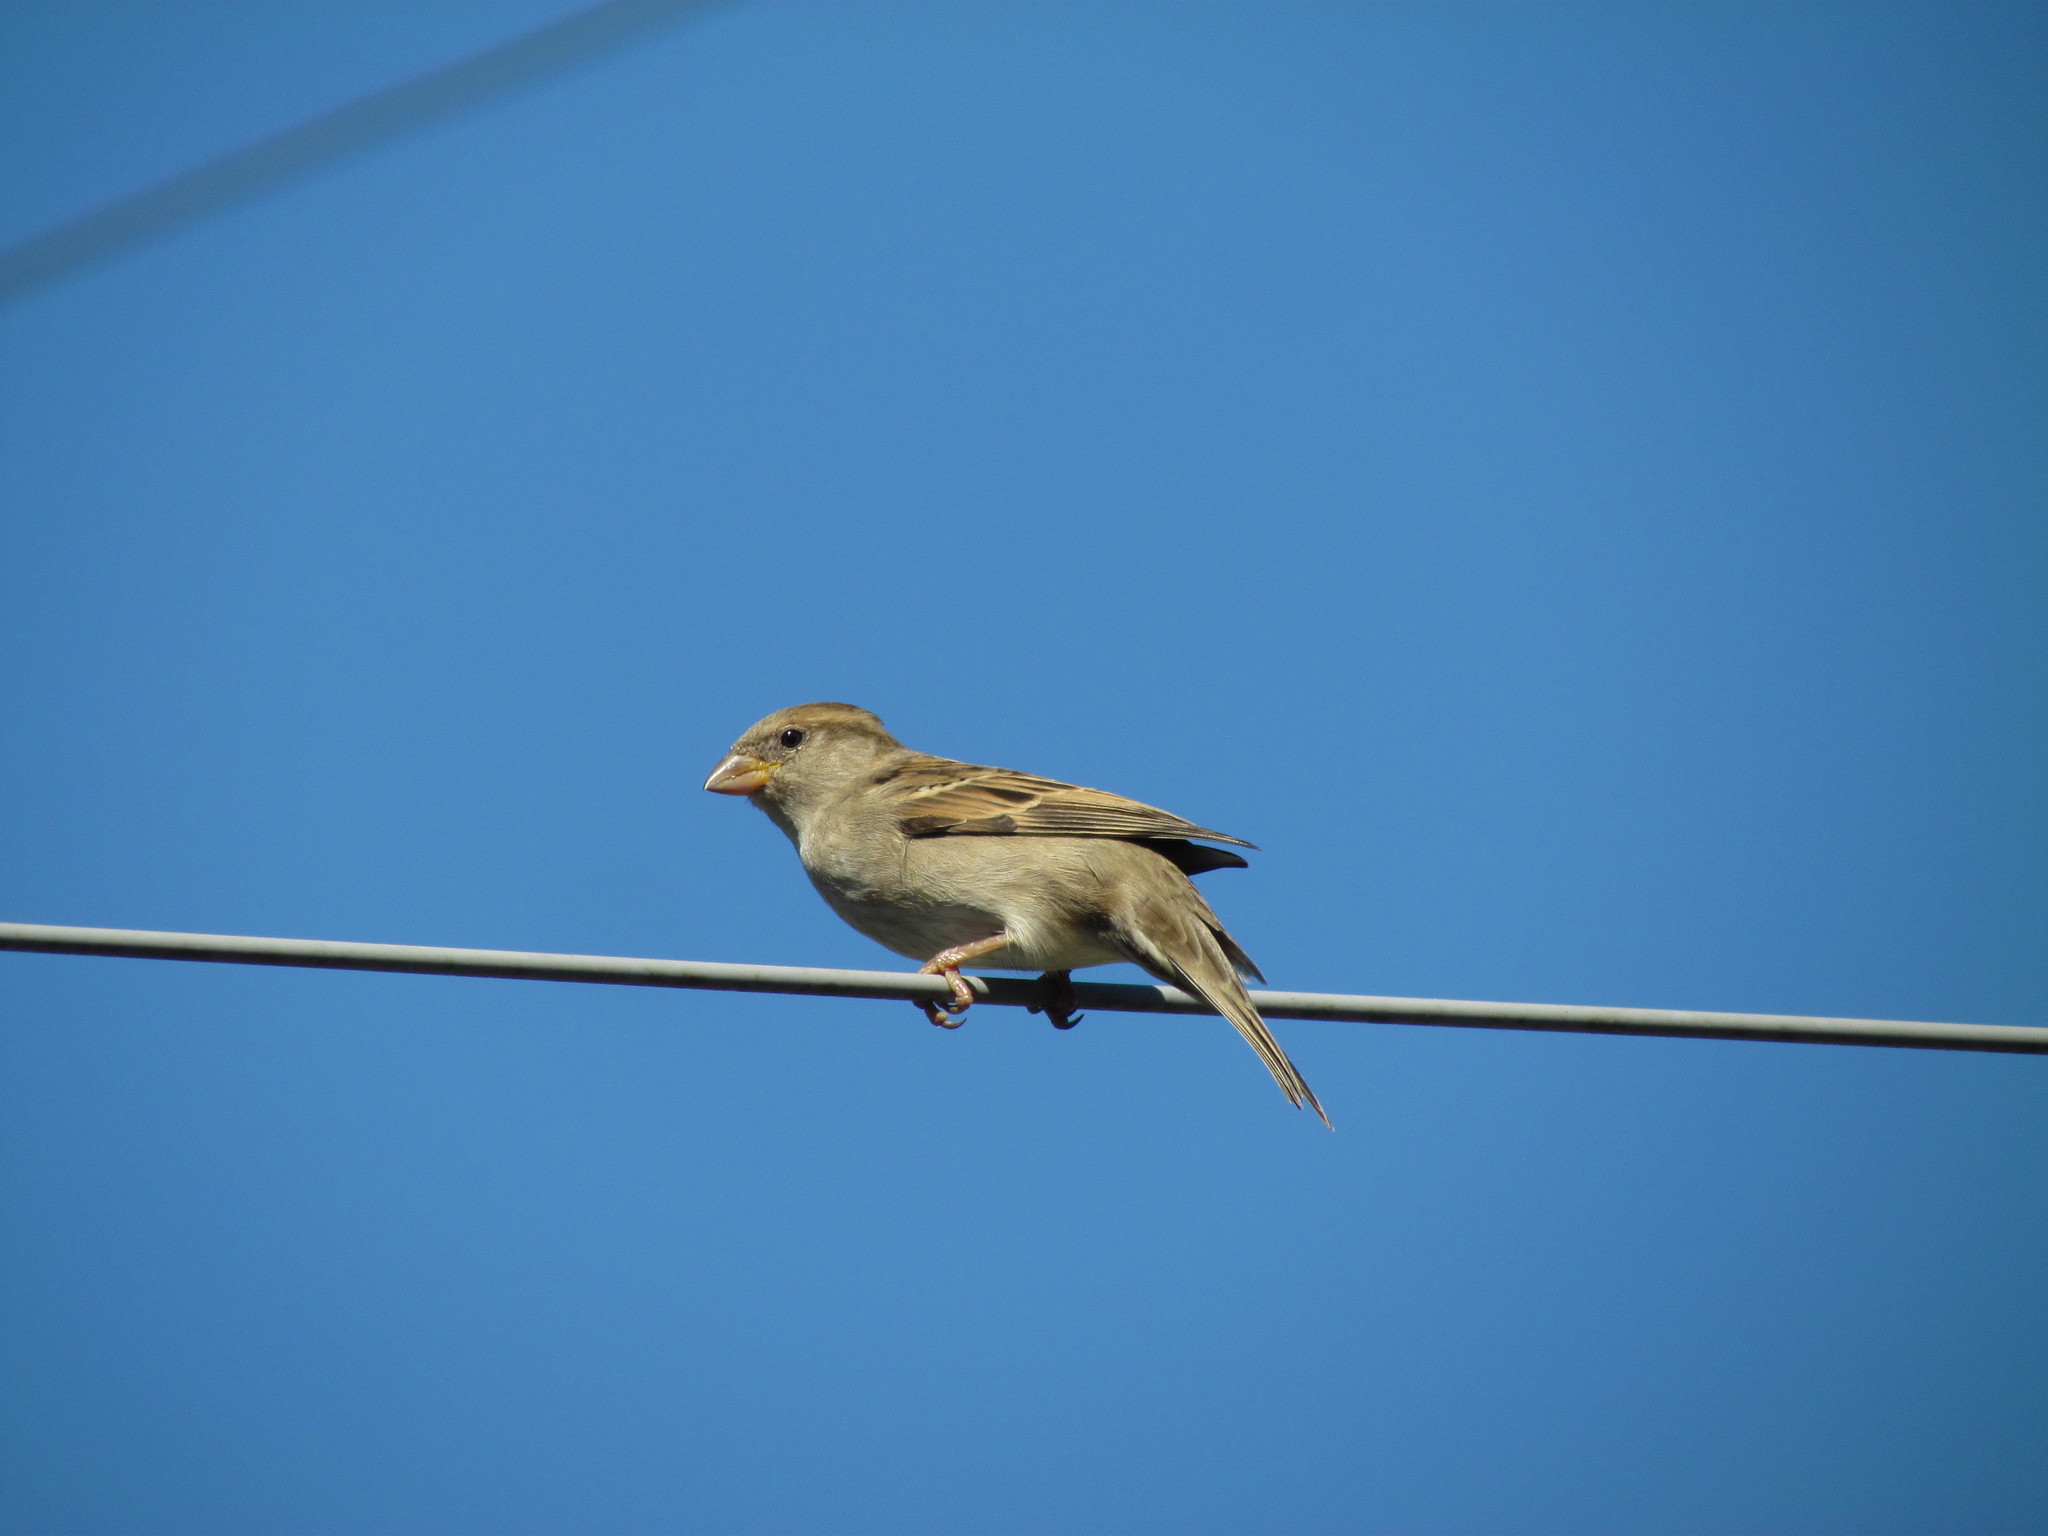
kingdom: Animalia
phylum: Chordata
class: Aves
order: Passeriformes
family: Passeridae
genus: Passer
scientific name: Passer domesticus
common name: House sparrow
